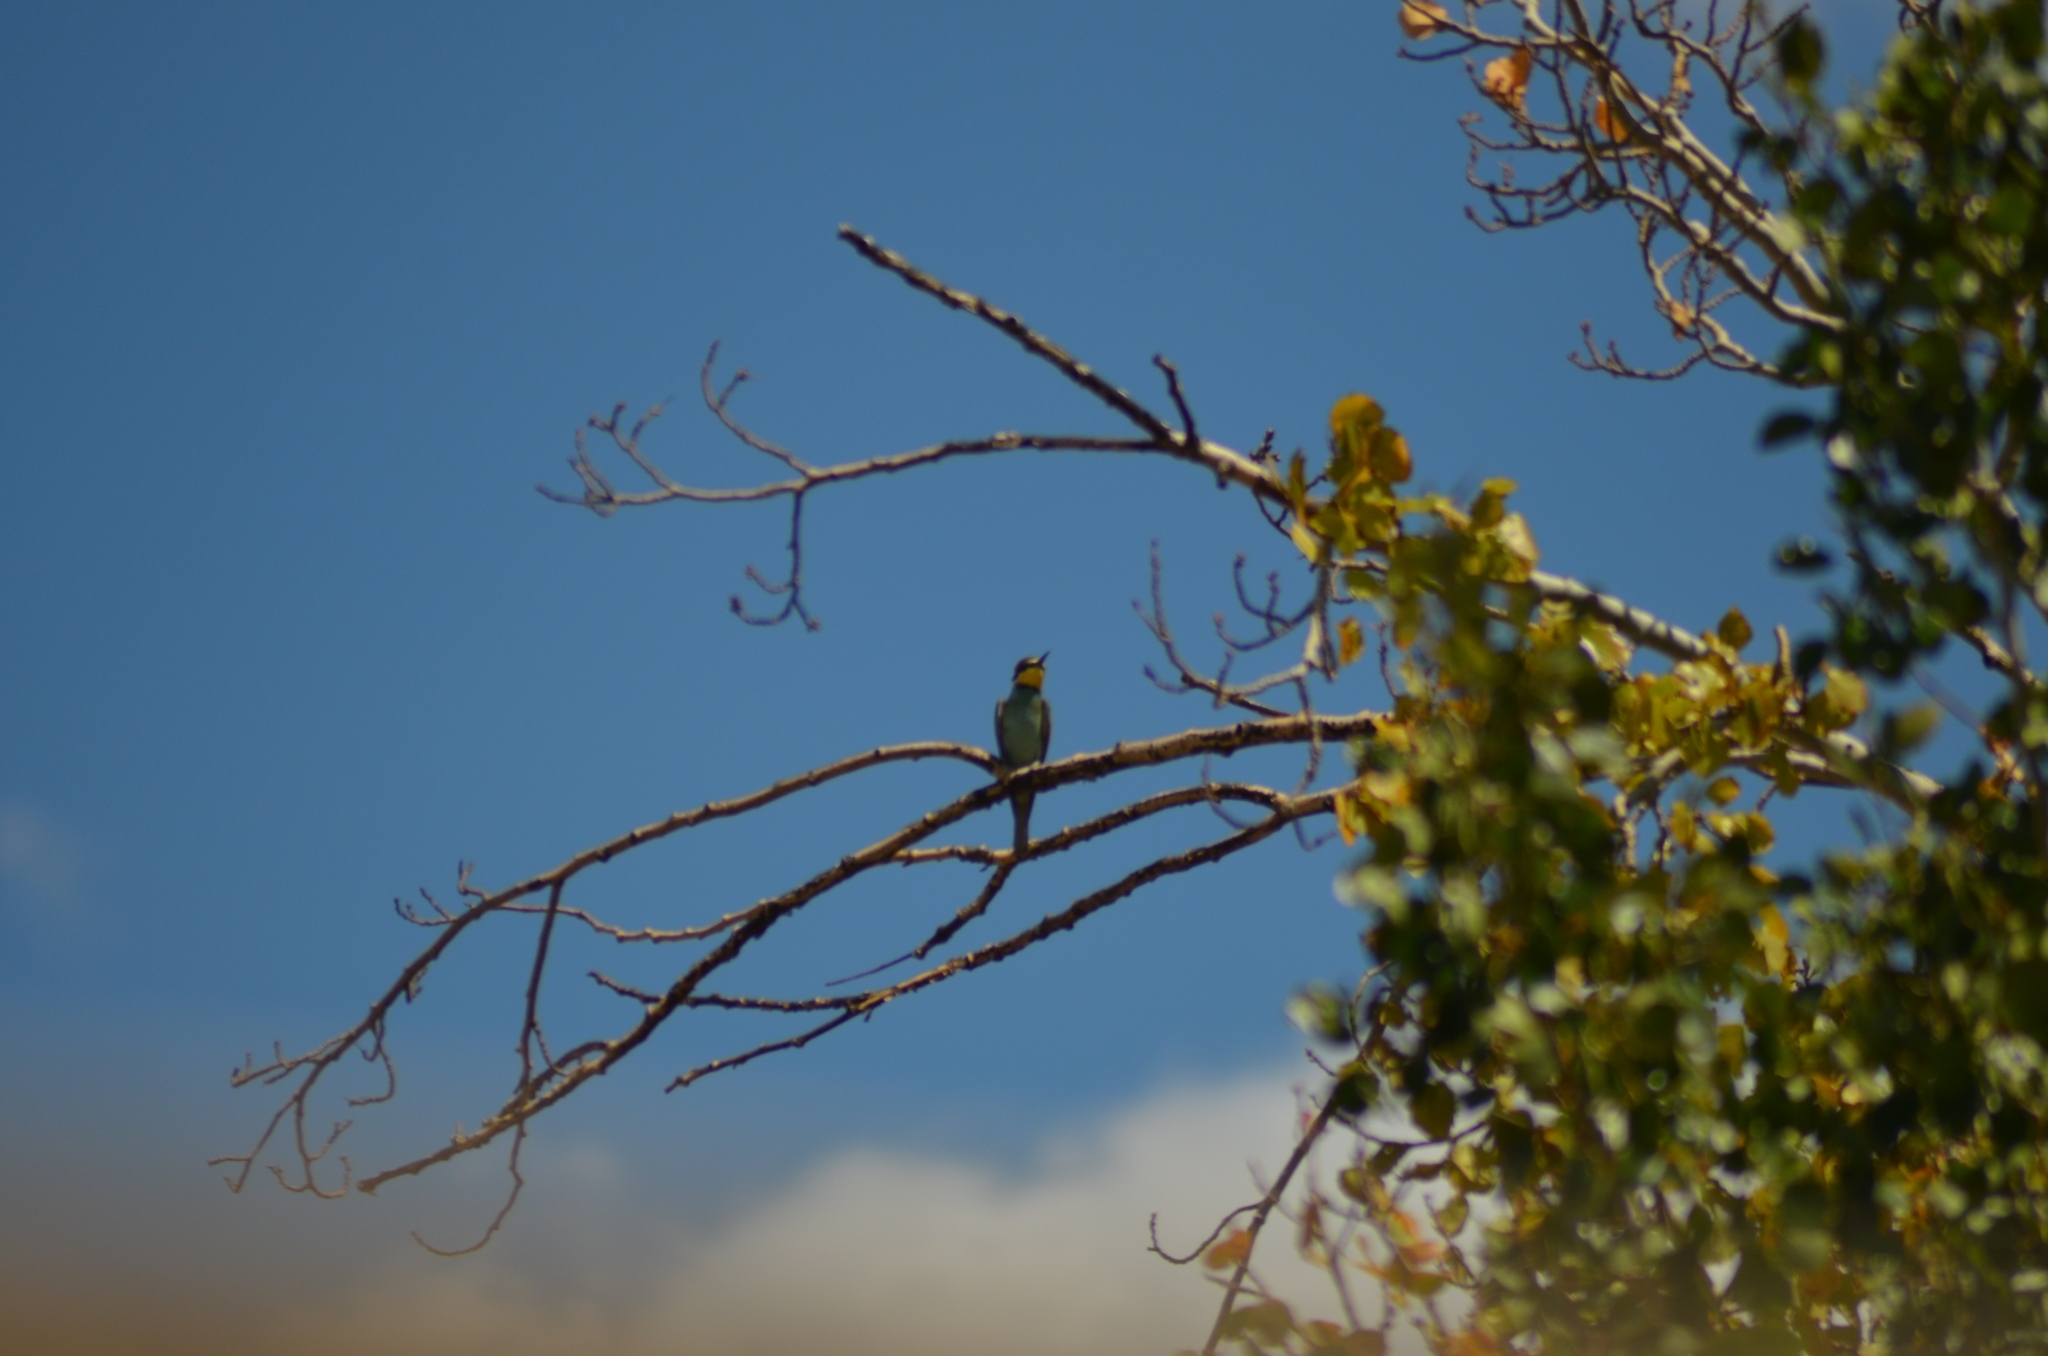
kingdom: Animalia
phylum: Chordata
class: Aves
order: Coraciiformes
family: Meropidae
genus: Merops
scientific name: Merops apiaster
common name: European bee-eater
